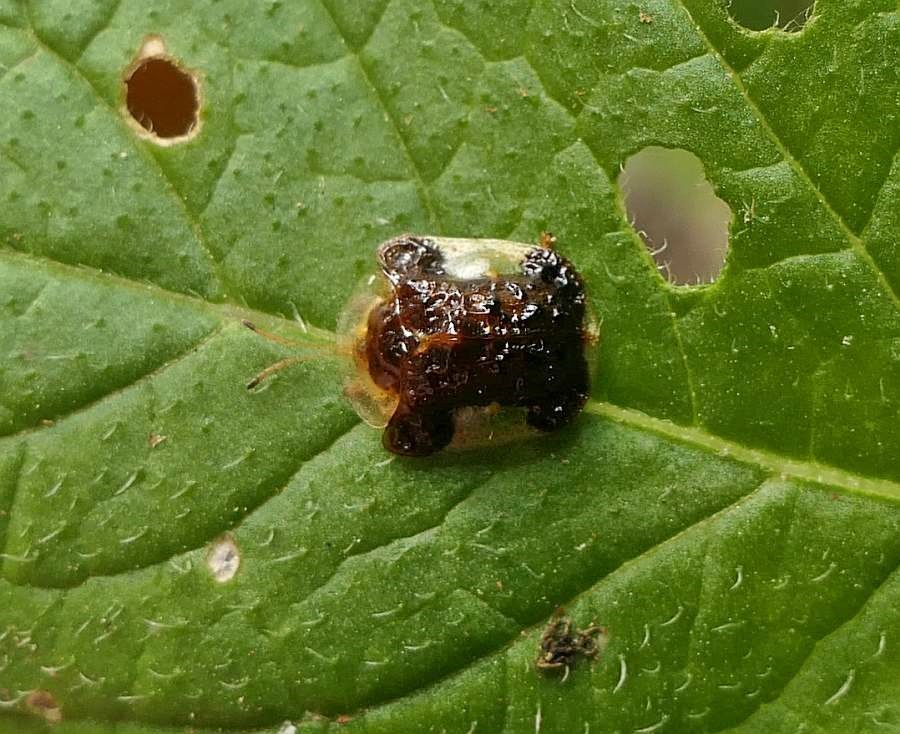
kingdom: Animalia
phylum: Arthropoda
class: Insecta
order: Coleoptera
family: Chrysomelidae
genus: Helocassis
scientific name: Helocassis clavata
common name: Clavate tortoise beetle
